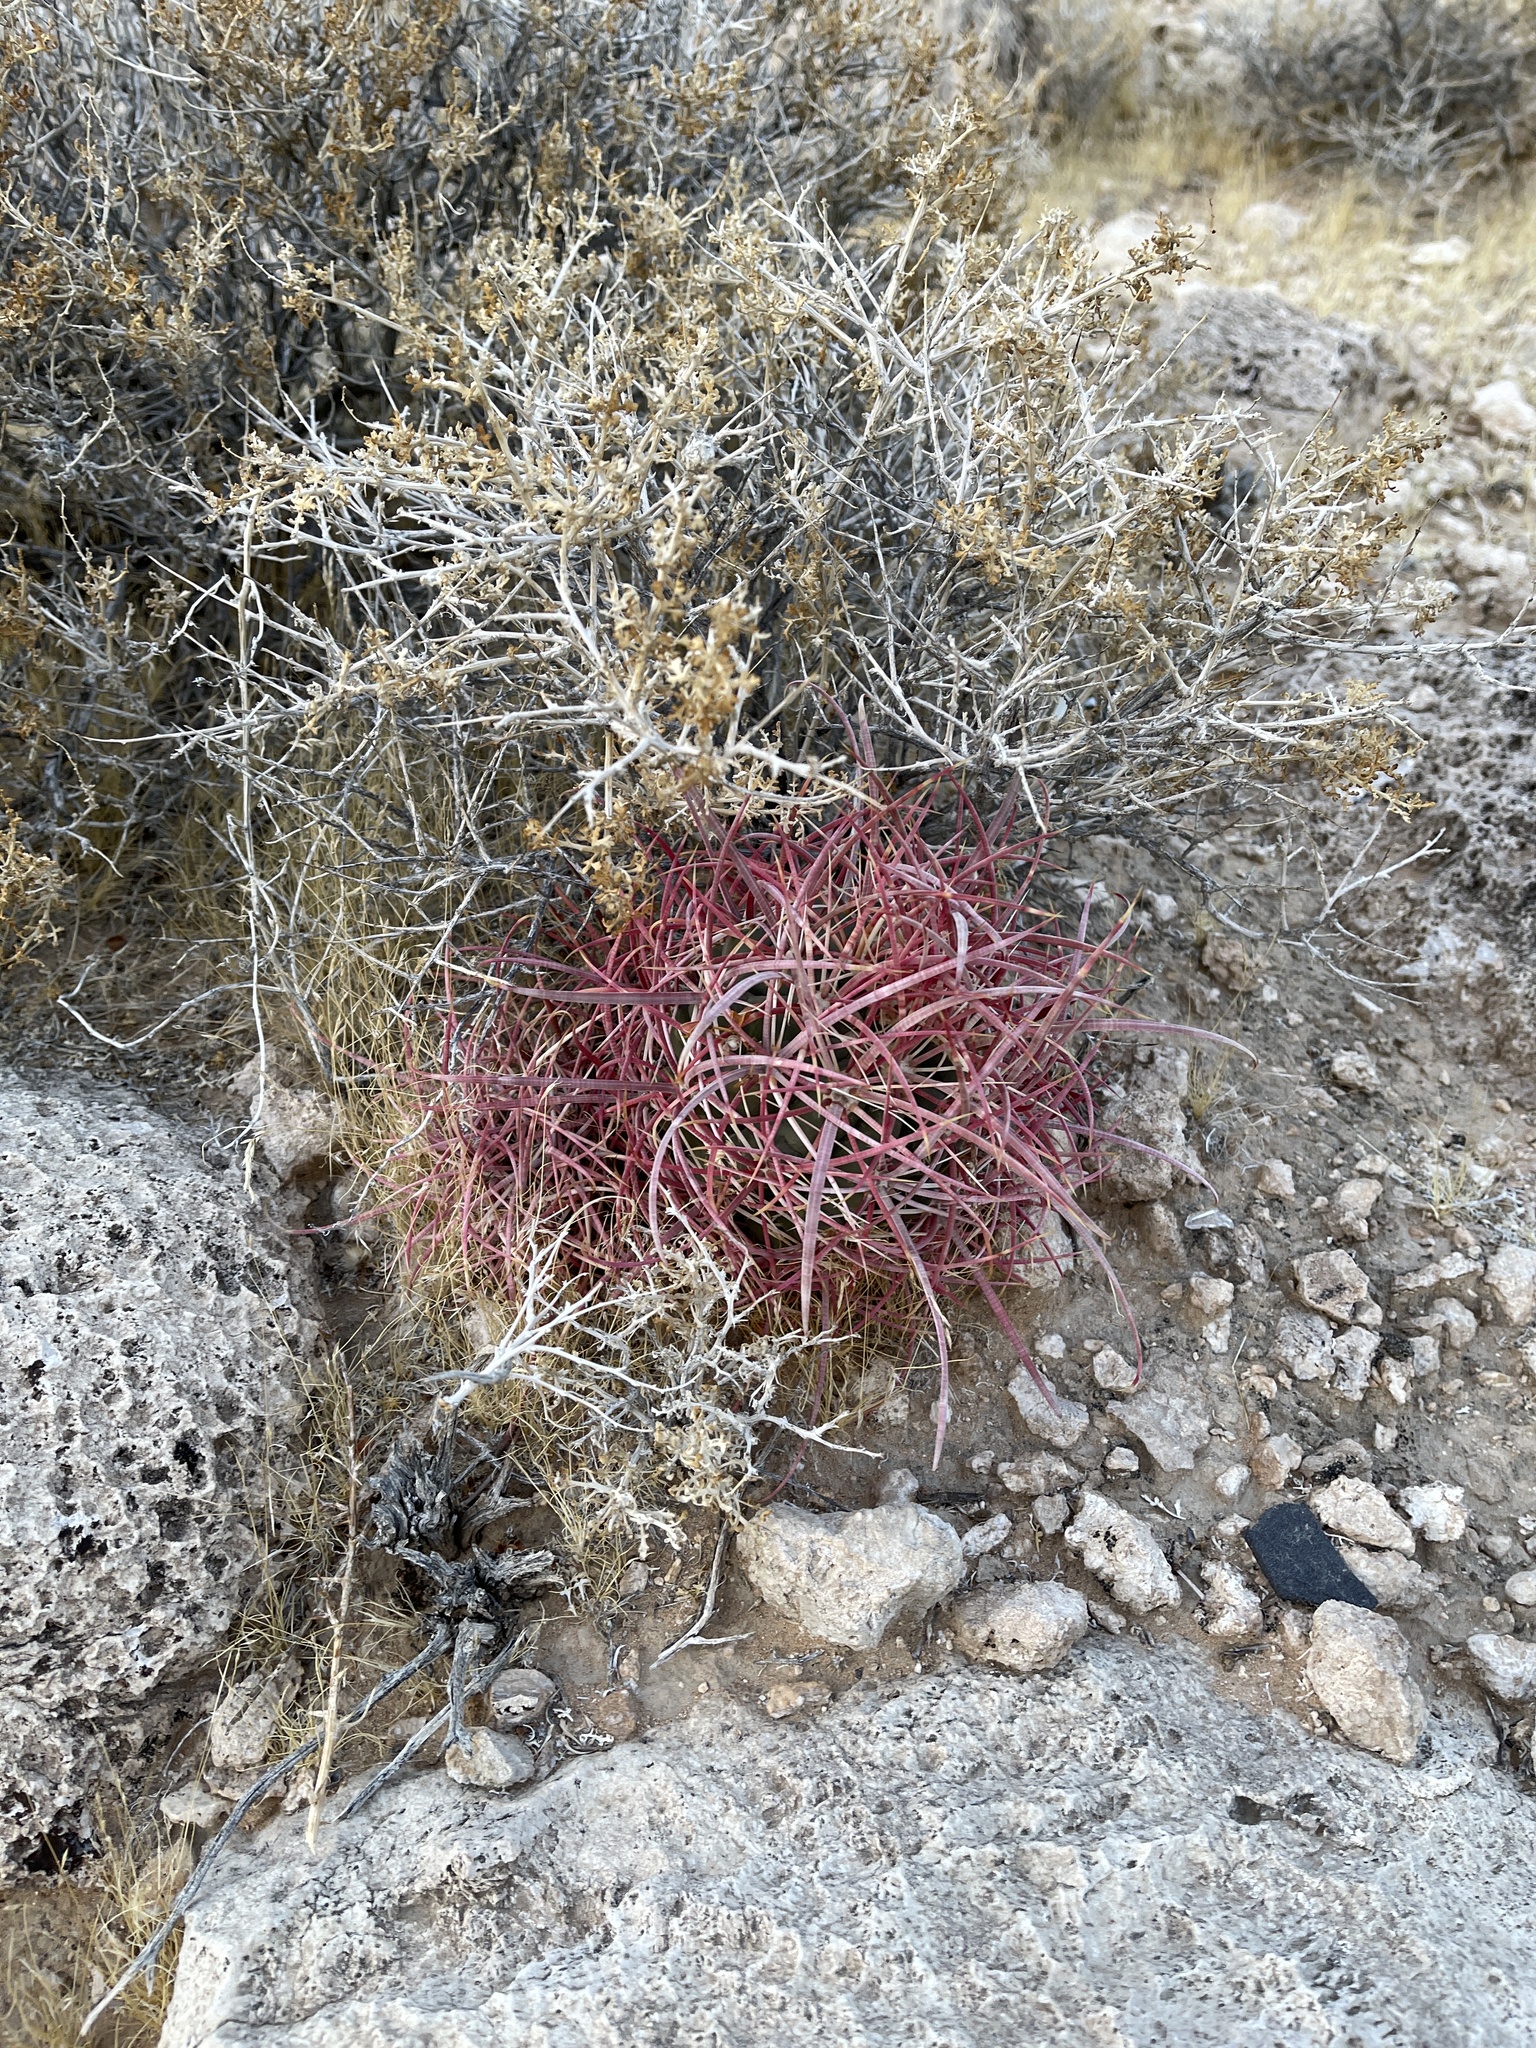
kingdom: Plantae
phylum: Tracheophyta
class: Magnoliopsida
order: Caryophyllales
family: Cactaceae
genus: Ferocactus
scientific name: Ferocactus cylindraceus
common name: California barrel cactus
